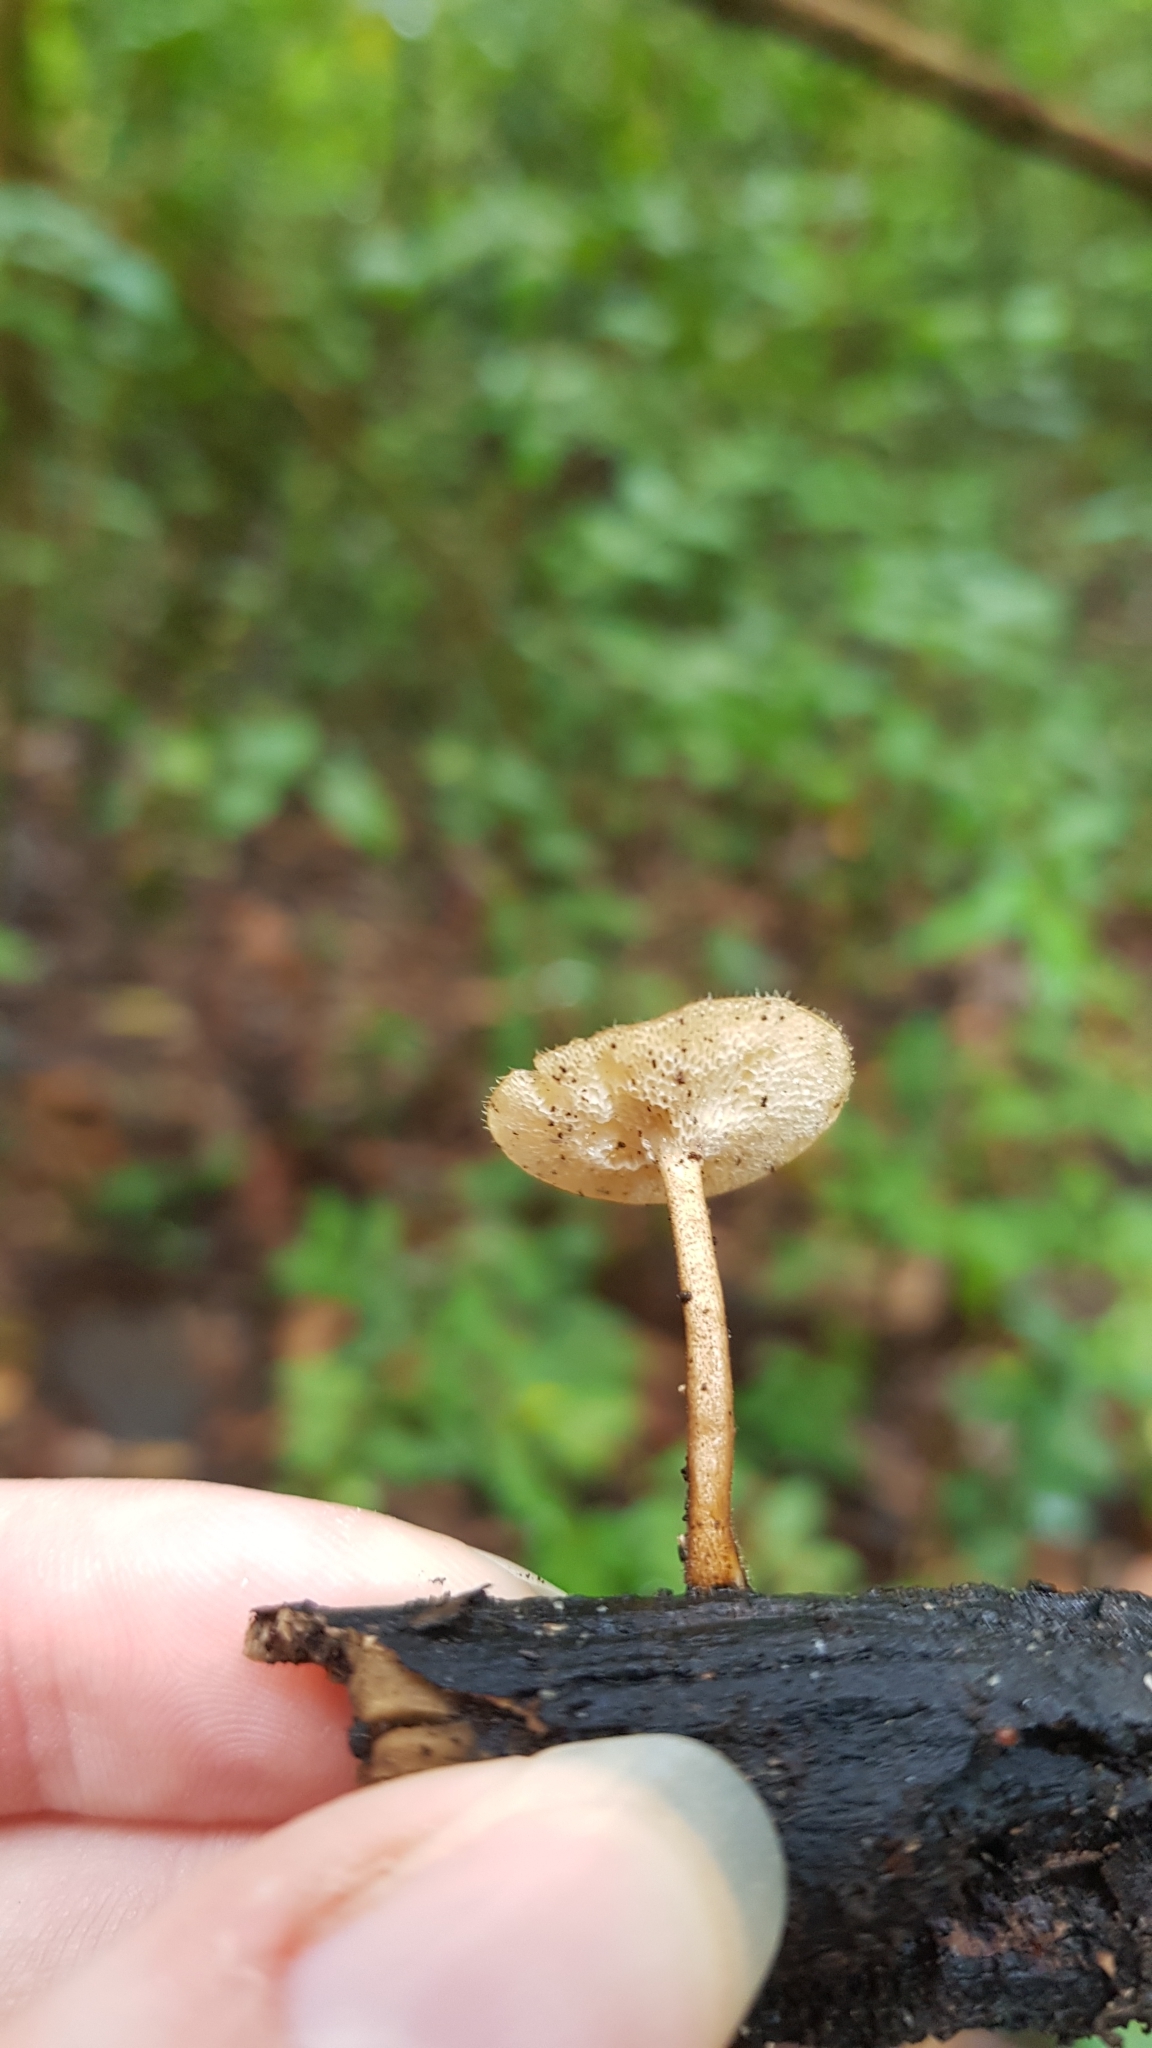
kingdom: Fungi
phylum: Basidiomycota
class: Agaricomycetes
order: Polyporales
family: Polyporaceae
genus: Lentinus
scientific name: Lentinus arcularius
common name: Spring polypore
